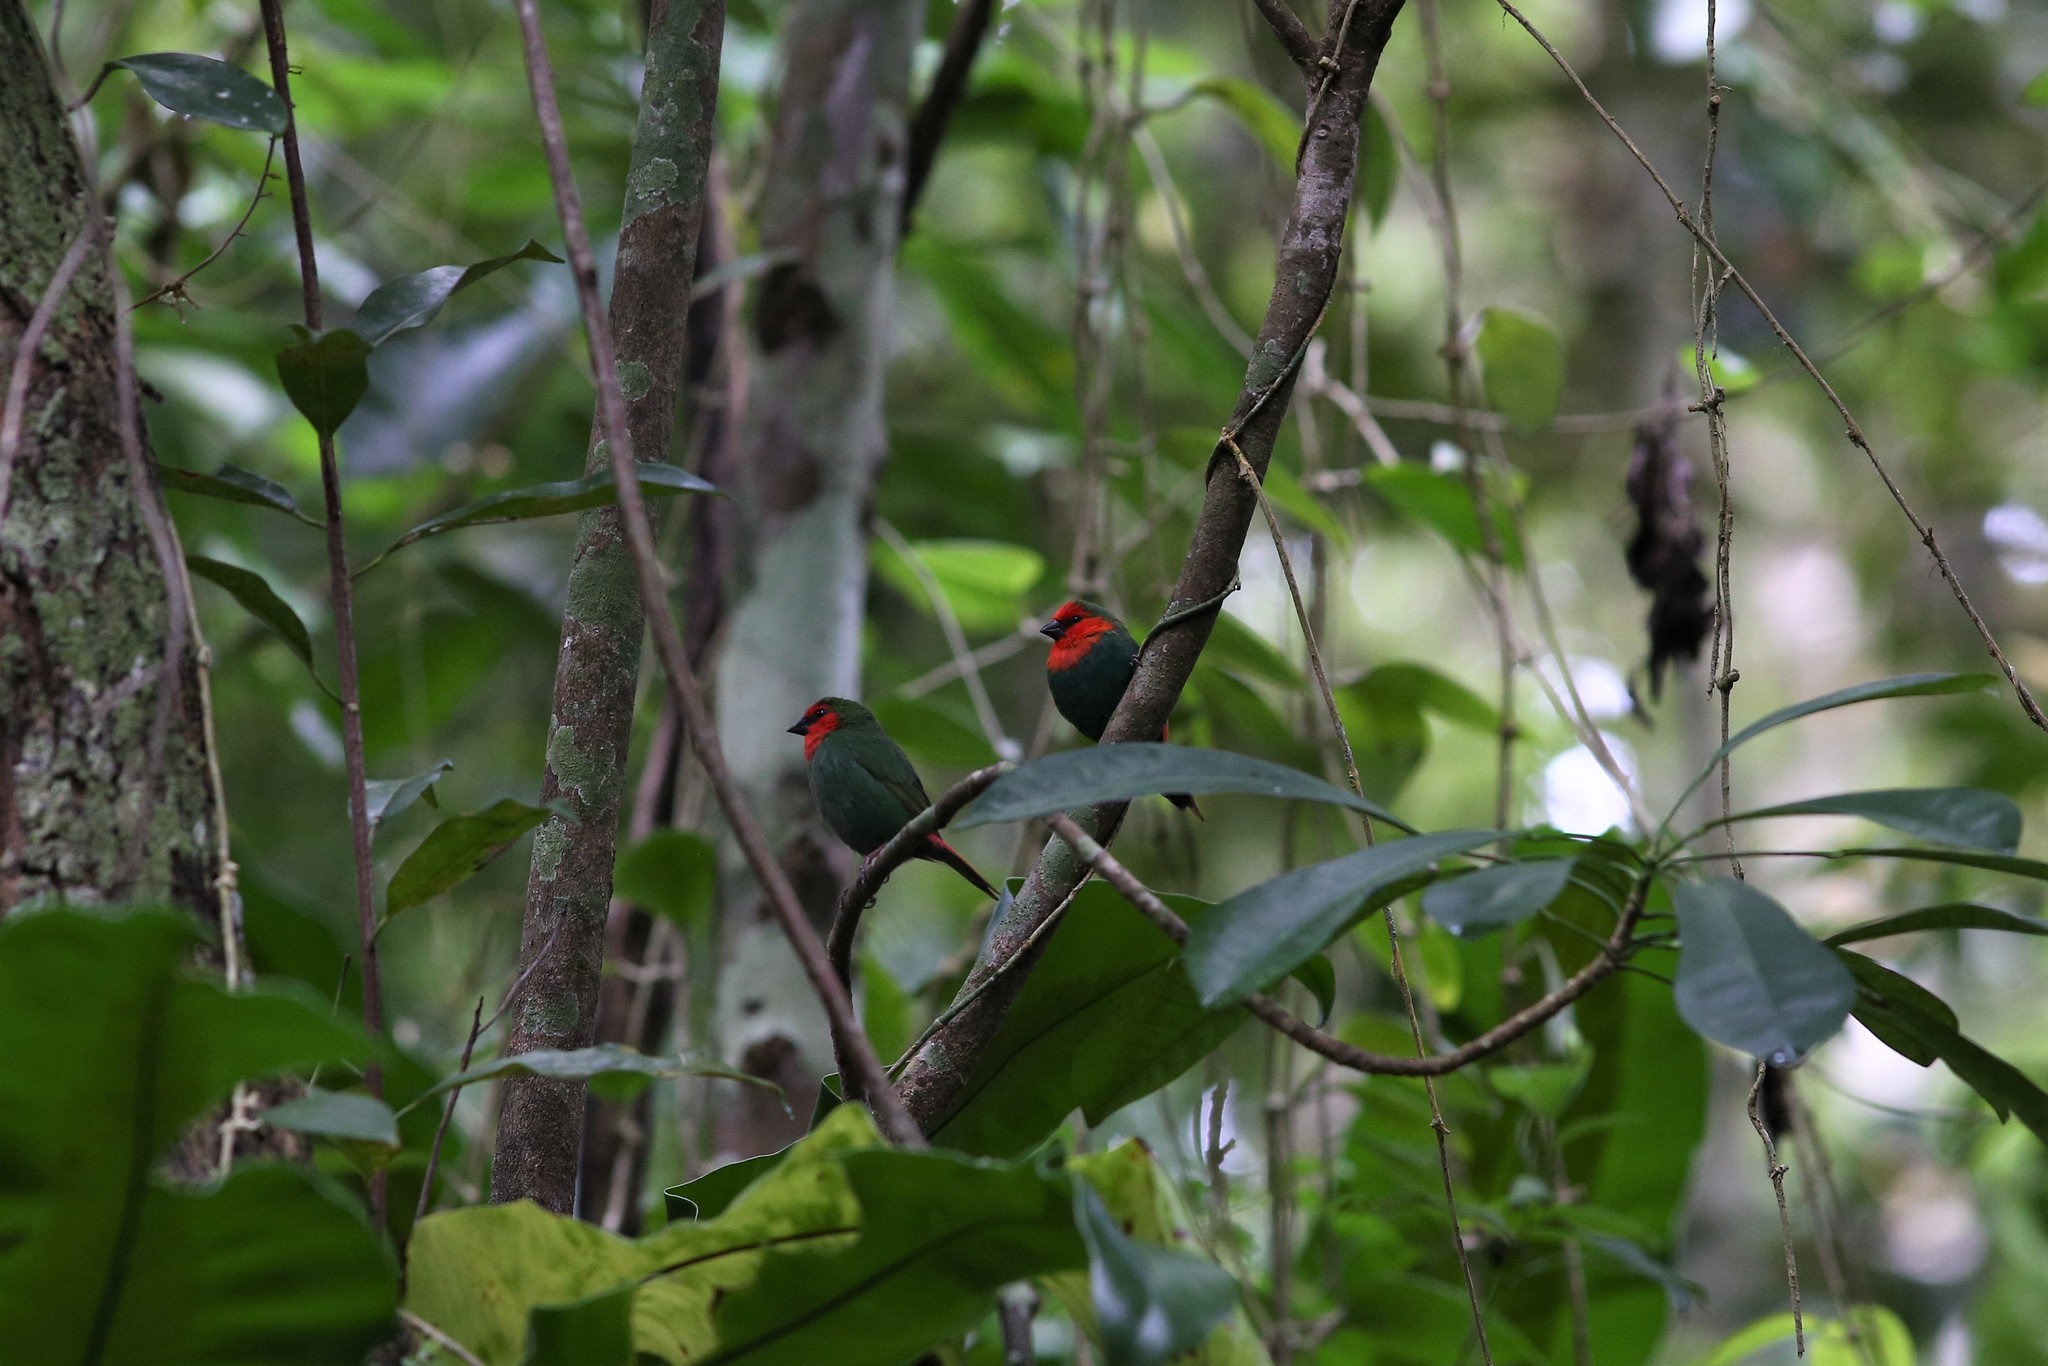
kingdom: Animalia
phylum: Chordata
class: Aves
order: Passeriformes
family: Estrildidae
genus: Erythrura
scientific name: Erythrura psittacea
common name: Red-throated parrotfinch
